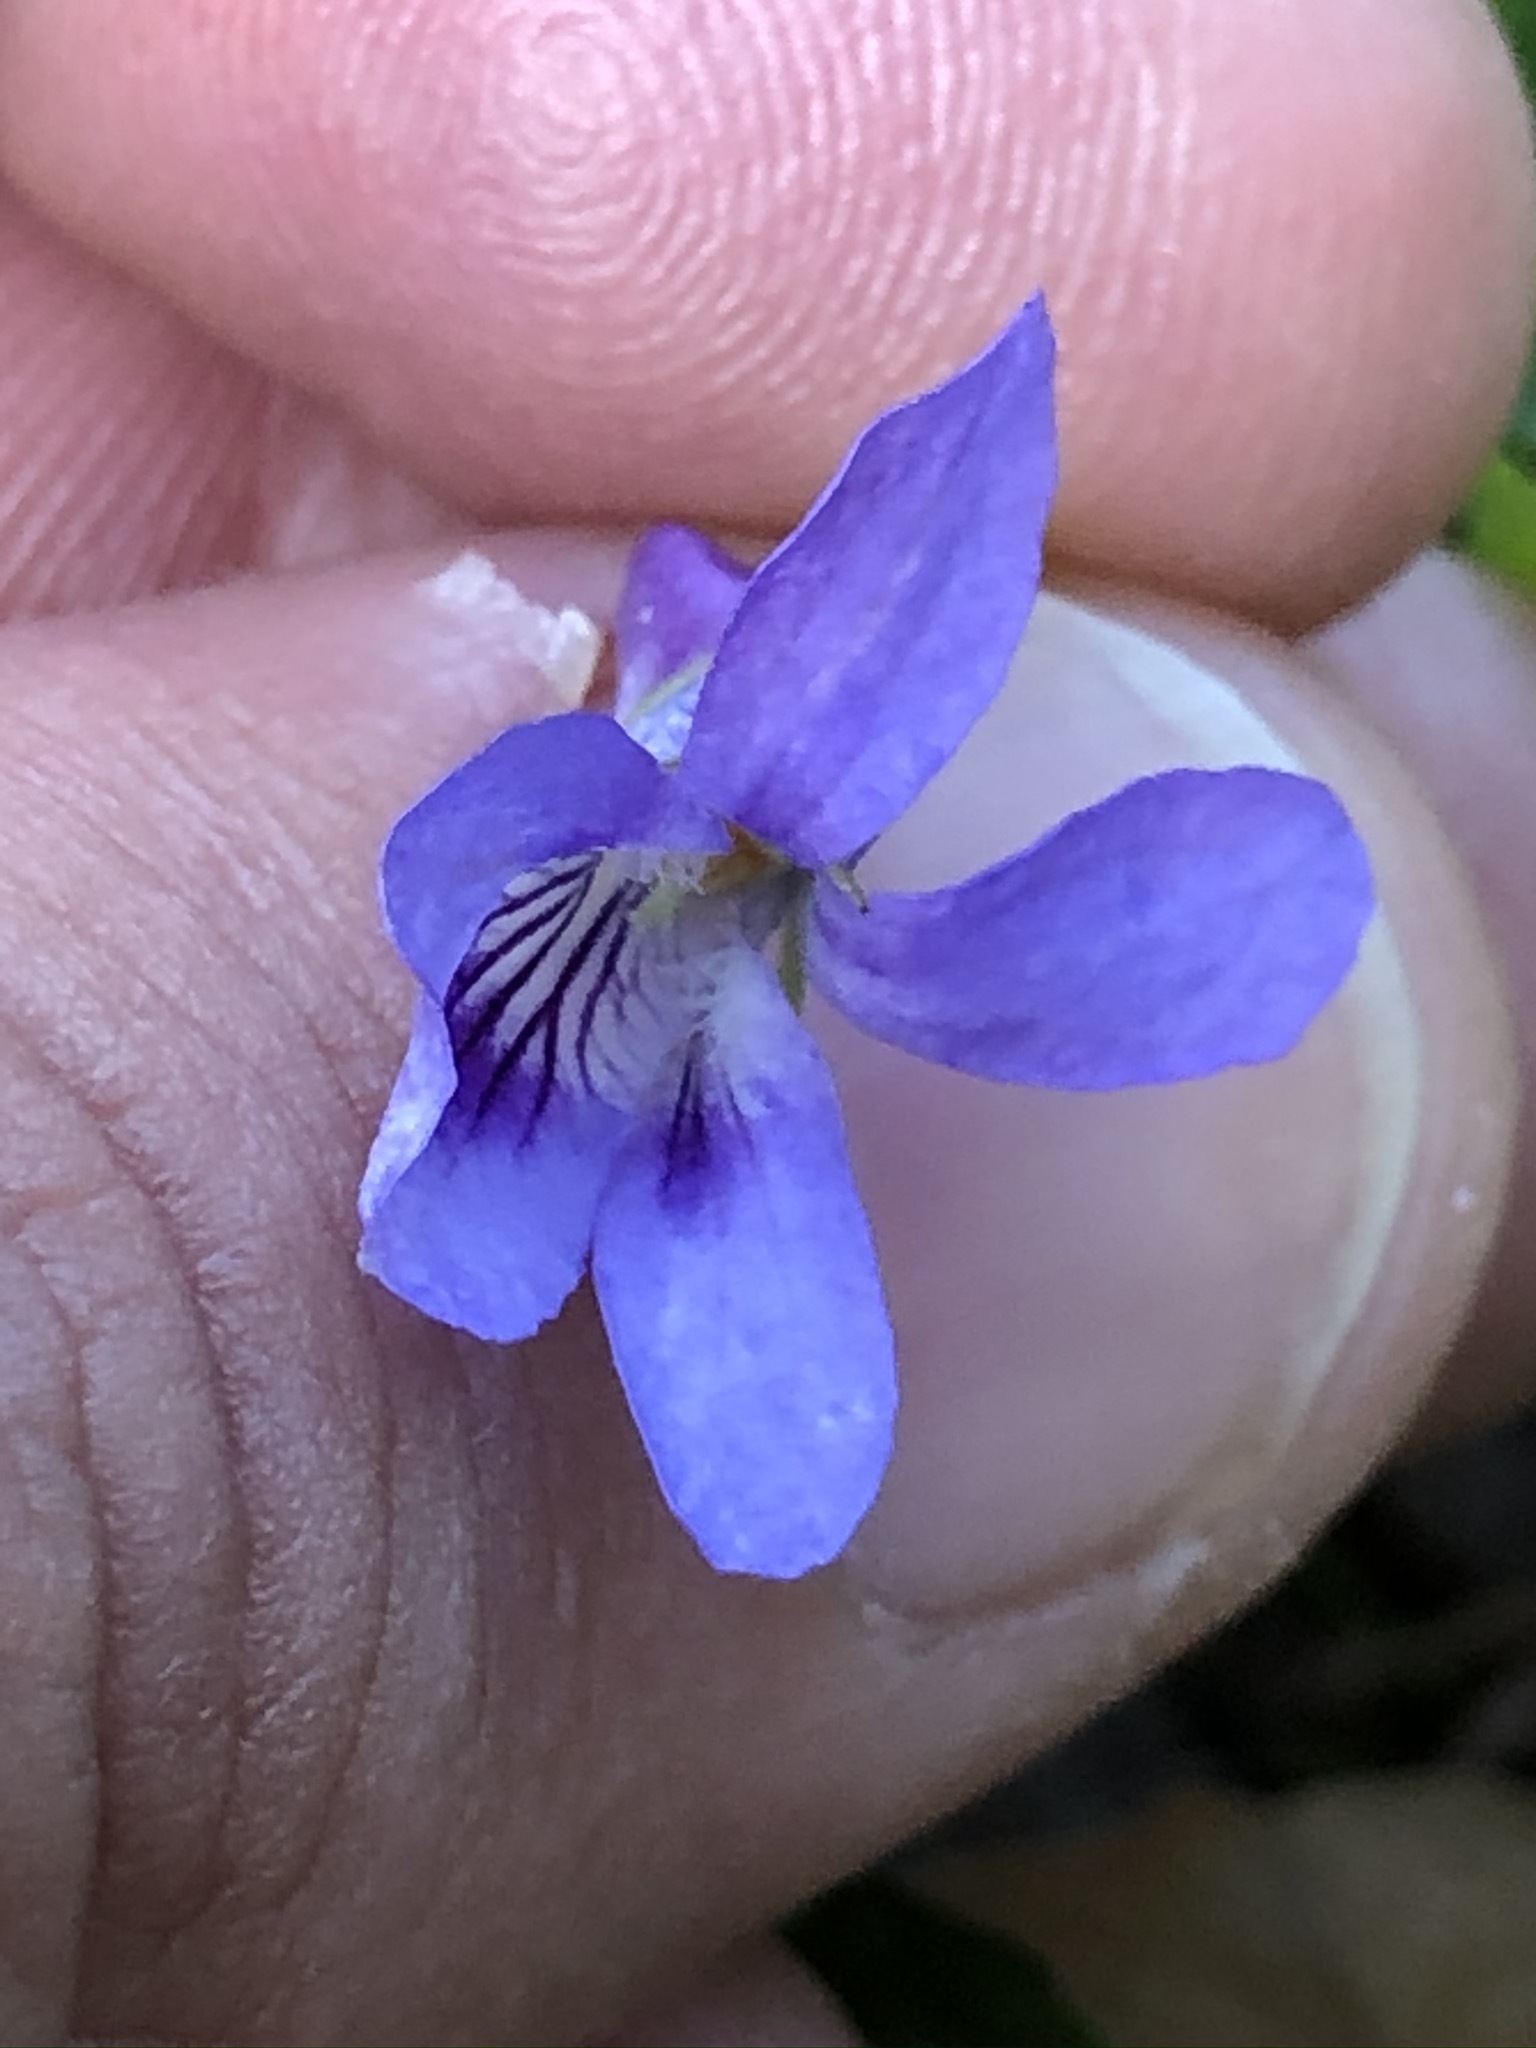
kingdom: Plantae
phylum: Tracheophyta
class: Magnoliopsida
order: Malpighiales
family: Violaceae
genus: Viola
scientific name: Viola reichenbachiana
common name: Early dog-violet
